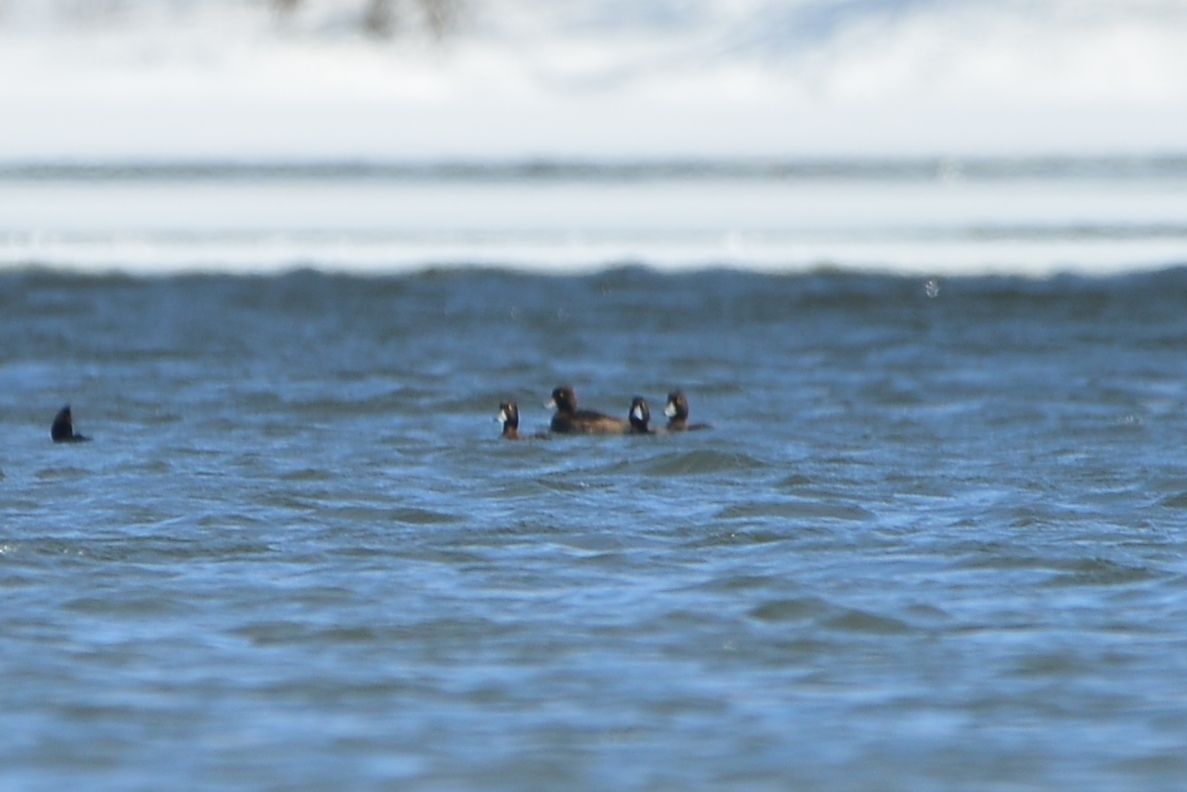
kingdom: Animalia
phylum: Chordata
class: Aves
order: Anseriformes
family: Anatidae
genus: Aythya
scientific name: Aythya fuligula
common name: Tufted duck
